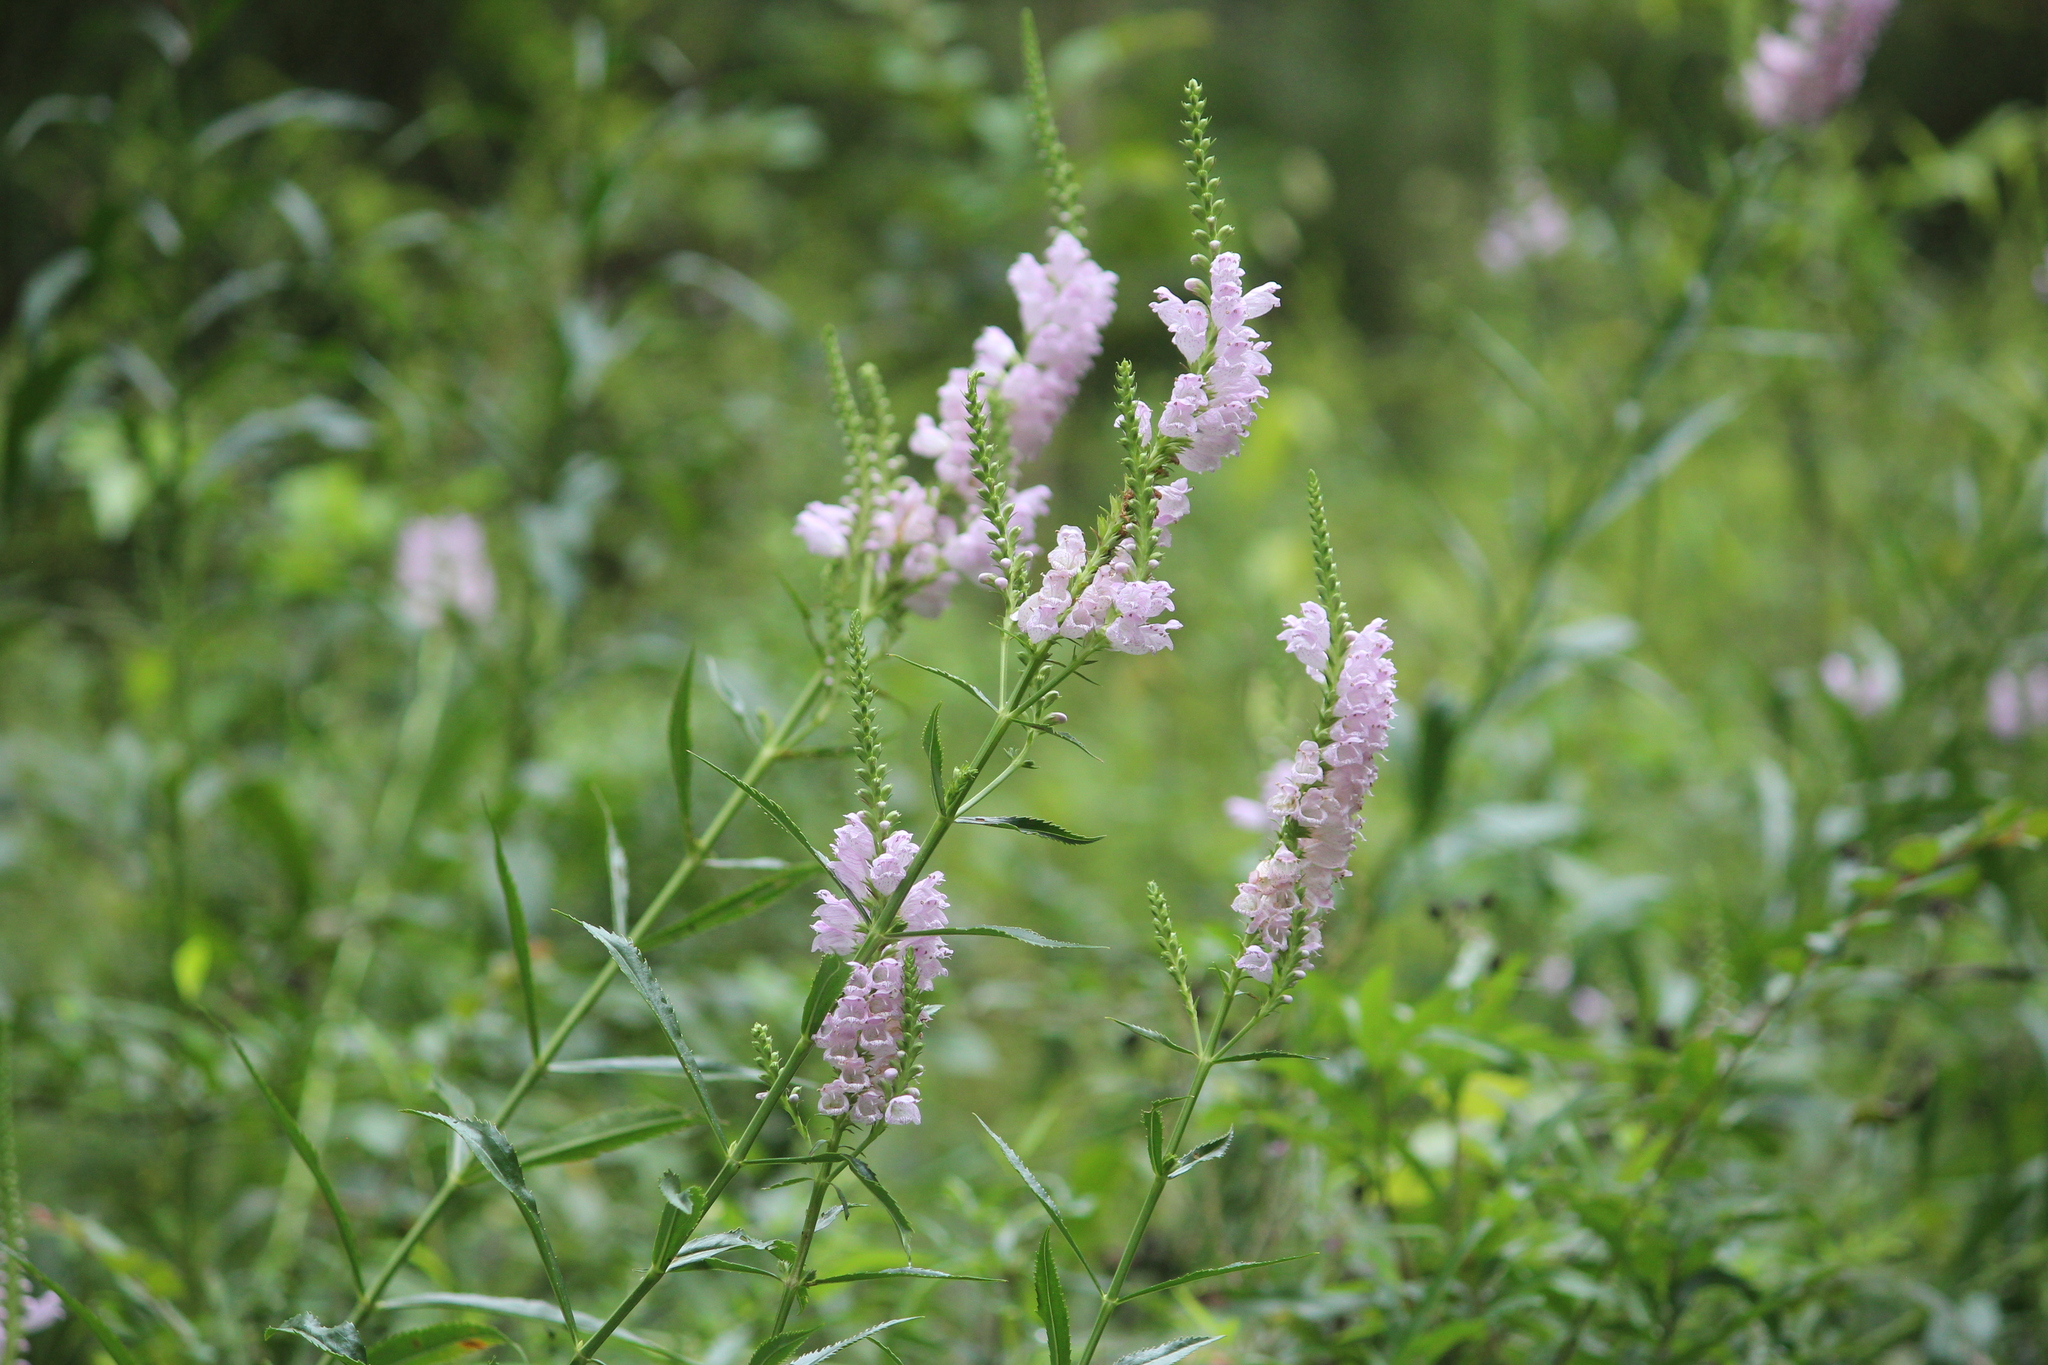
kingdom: Plantae
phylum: Tracheophyta
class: Magnoliopsida
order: Lamiales
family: Lamiaceae
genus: Physostegia
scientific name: Physostegia virginiana
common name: Obedient-plant
